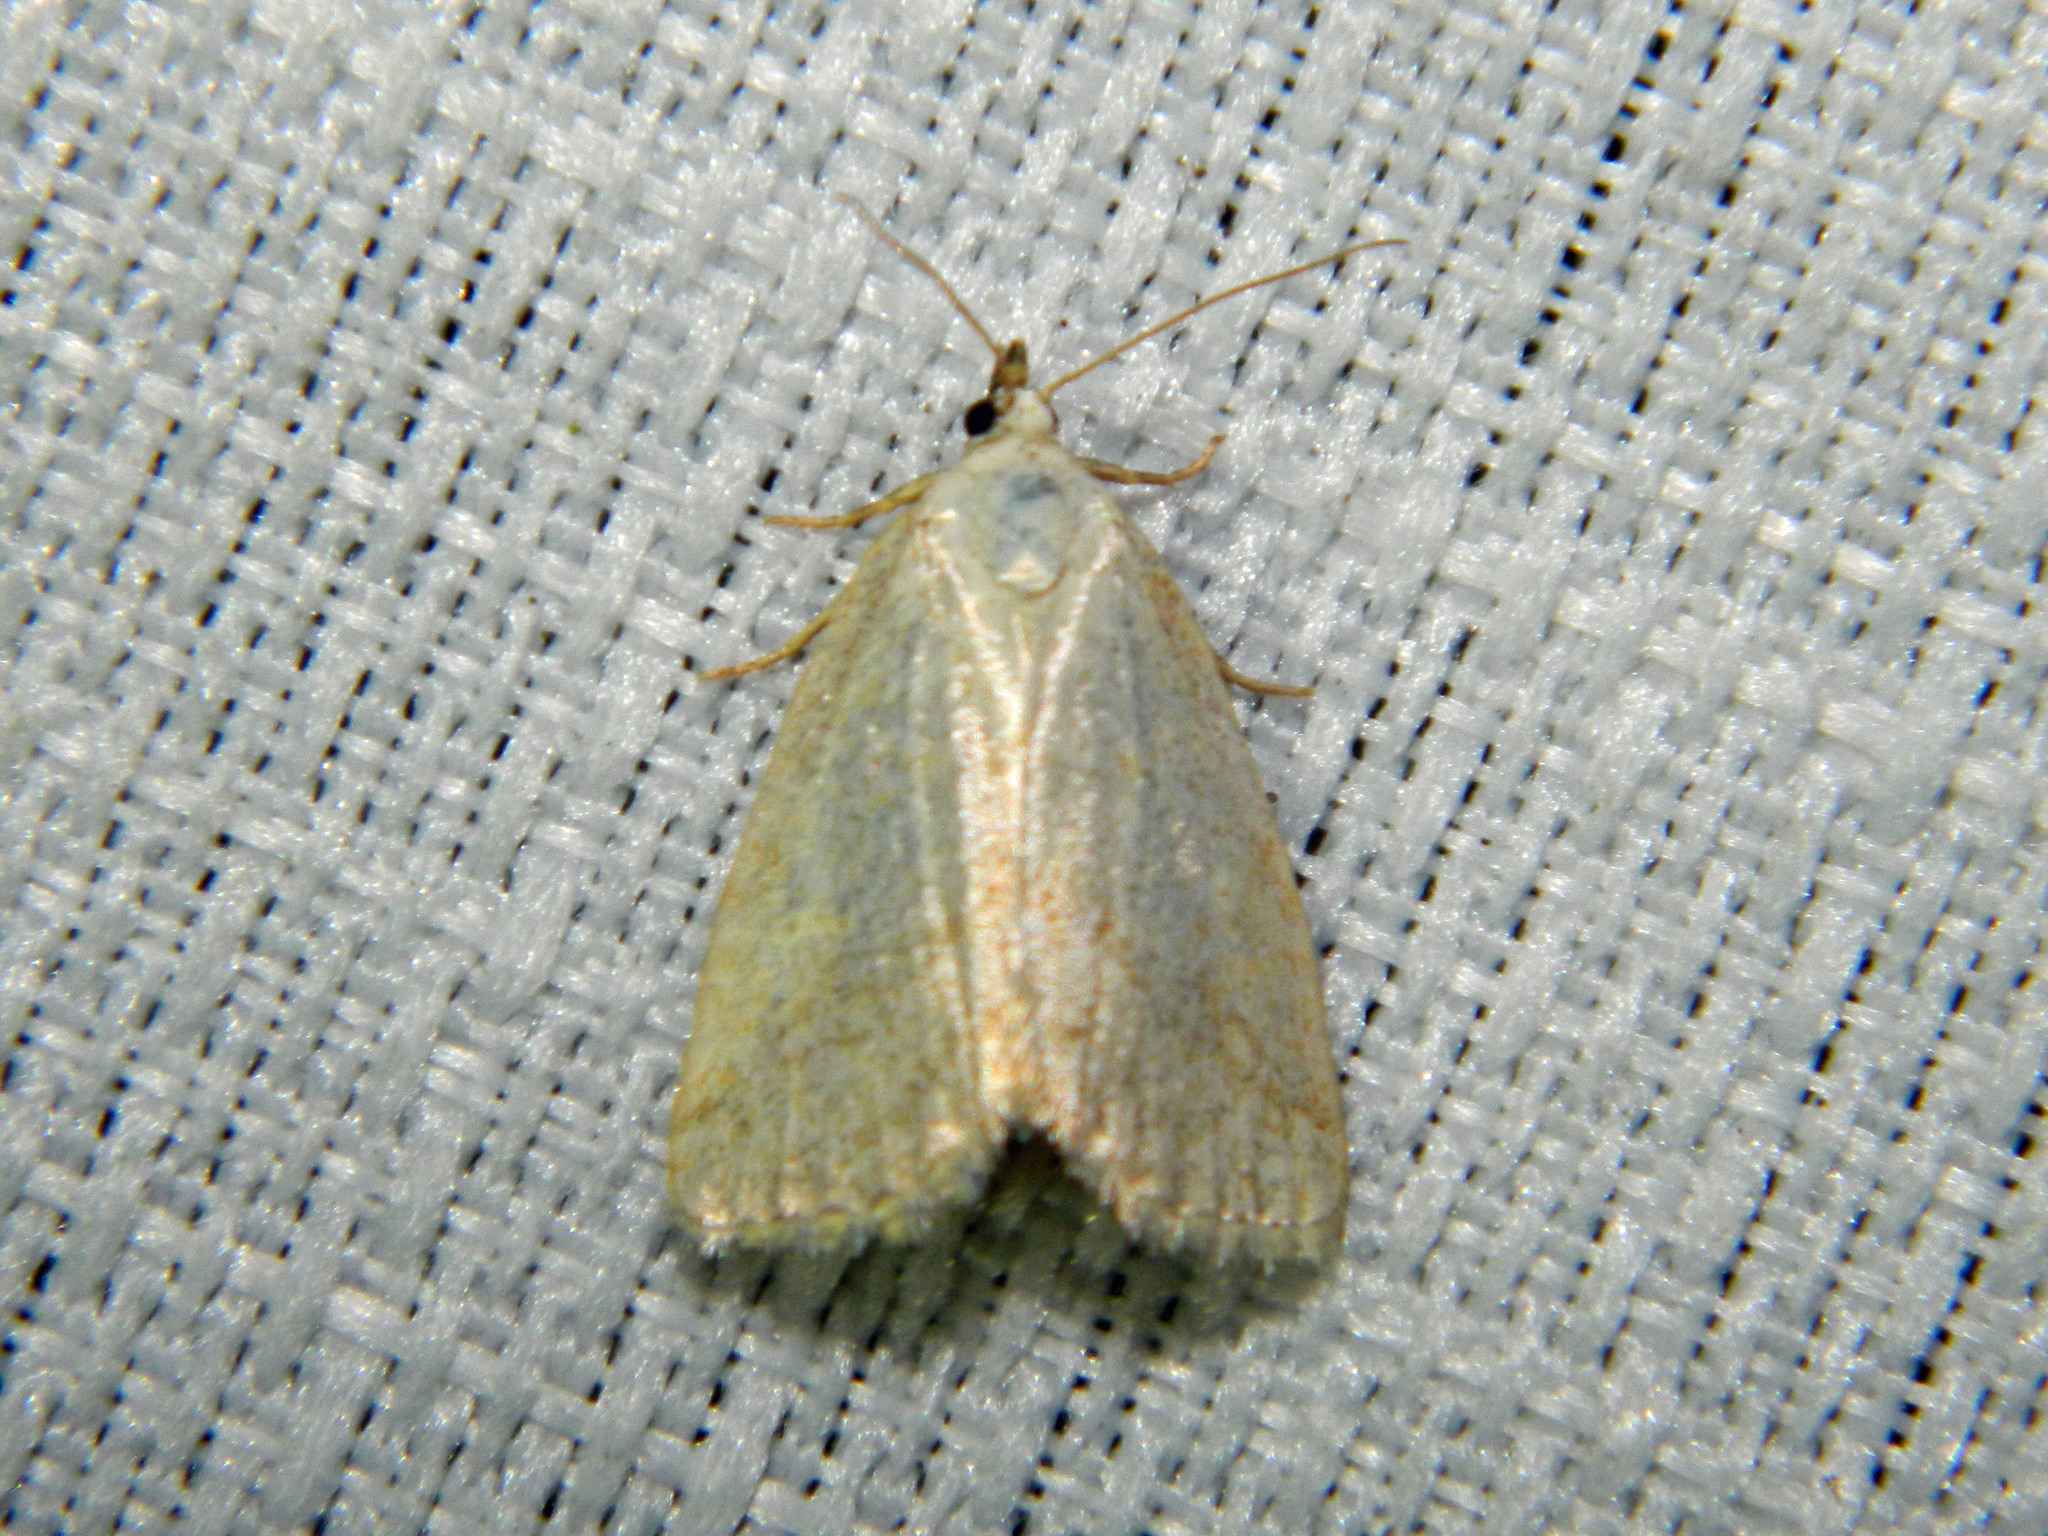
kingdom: Animalia
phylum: Arthropoda
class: Insecta
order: Lepidoptera
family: Noctuidae
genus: Protodeltote
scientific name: Protodeltote albidula
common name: Pale glyph
